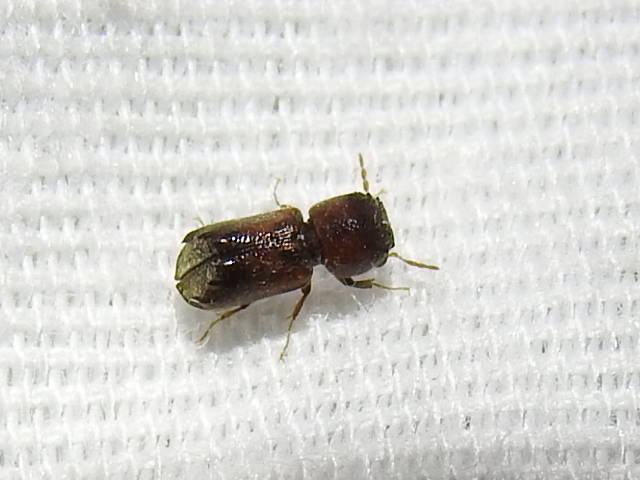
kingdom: Animalia
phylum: Arthropoda
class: Insecta
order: Coleoptera
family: Bostrichidae
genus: Xylobiops
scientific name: Xylobiops basilaris
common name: Red-shouldered bostrichid
